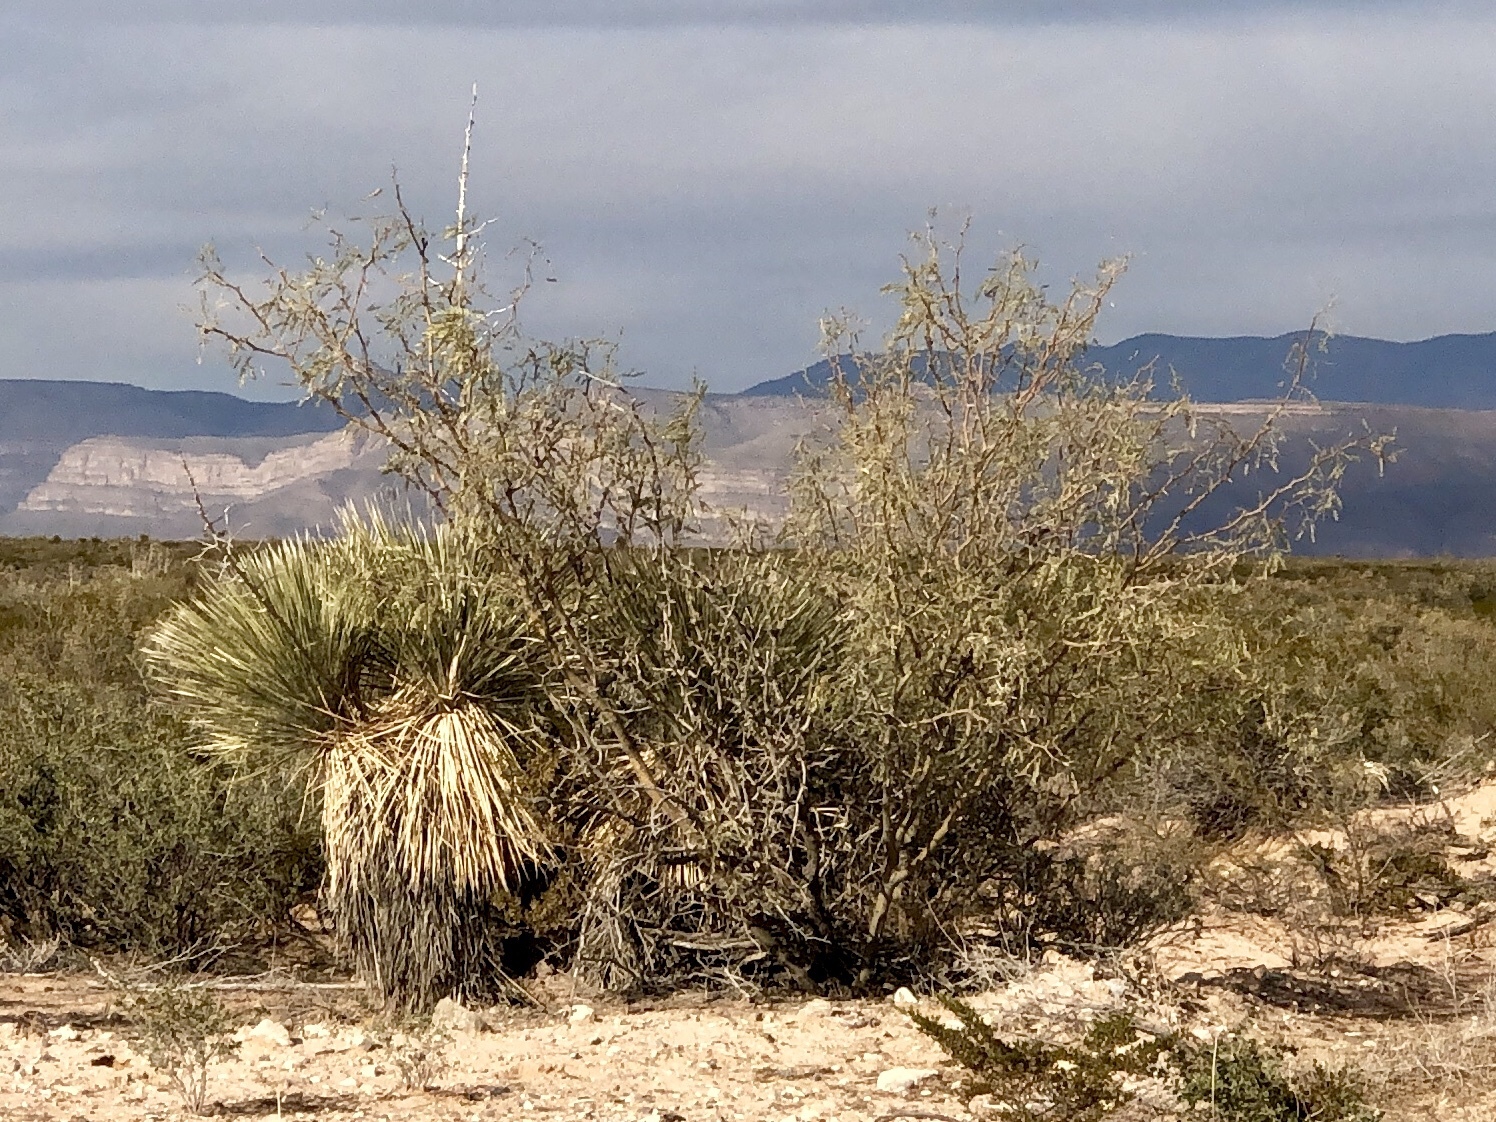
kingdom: Plantae
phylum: Tracheophyta
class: Magnoliopsida
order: Fabales
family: Fabaceae
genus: Prosopis
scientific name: Prosopis glandulosa
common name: Honey mesquite
